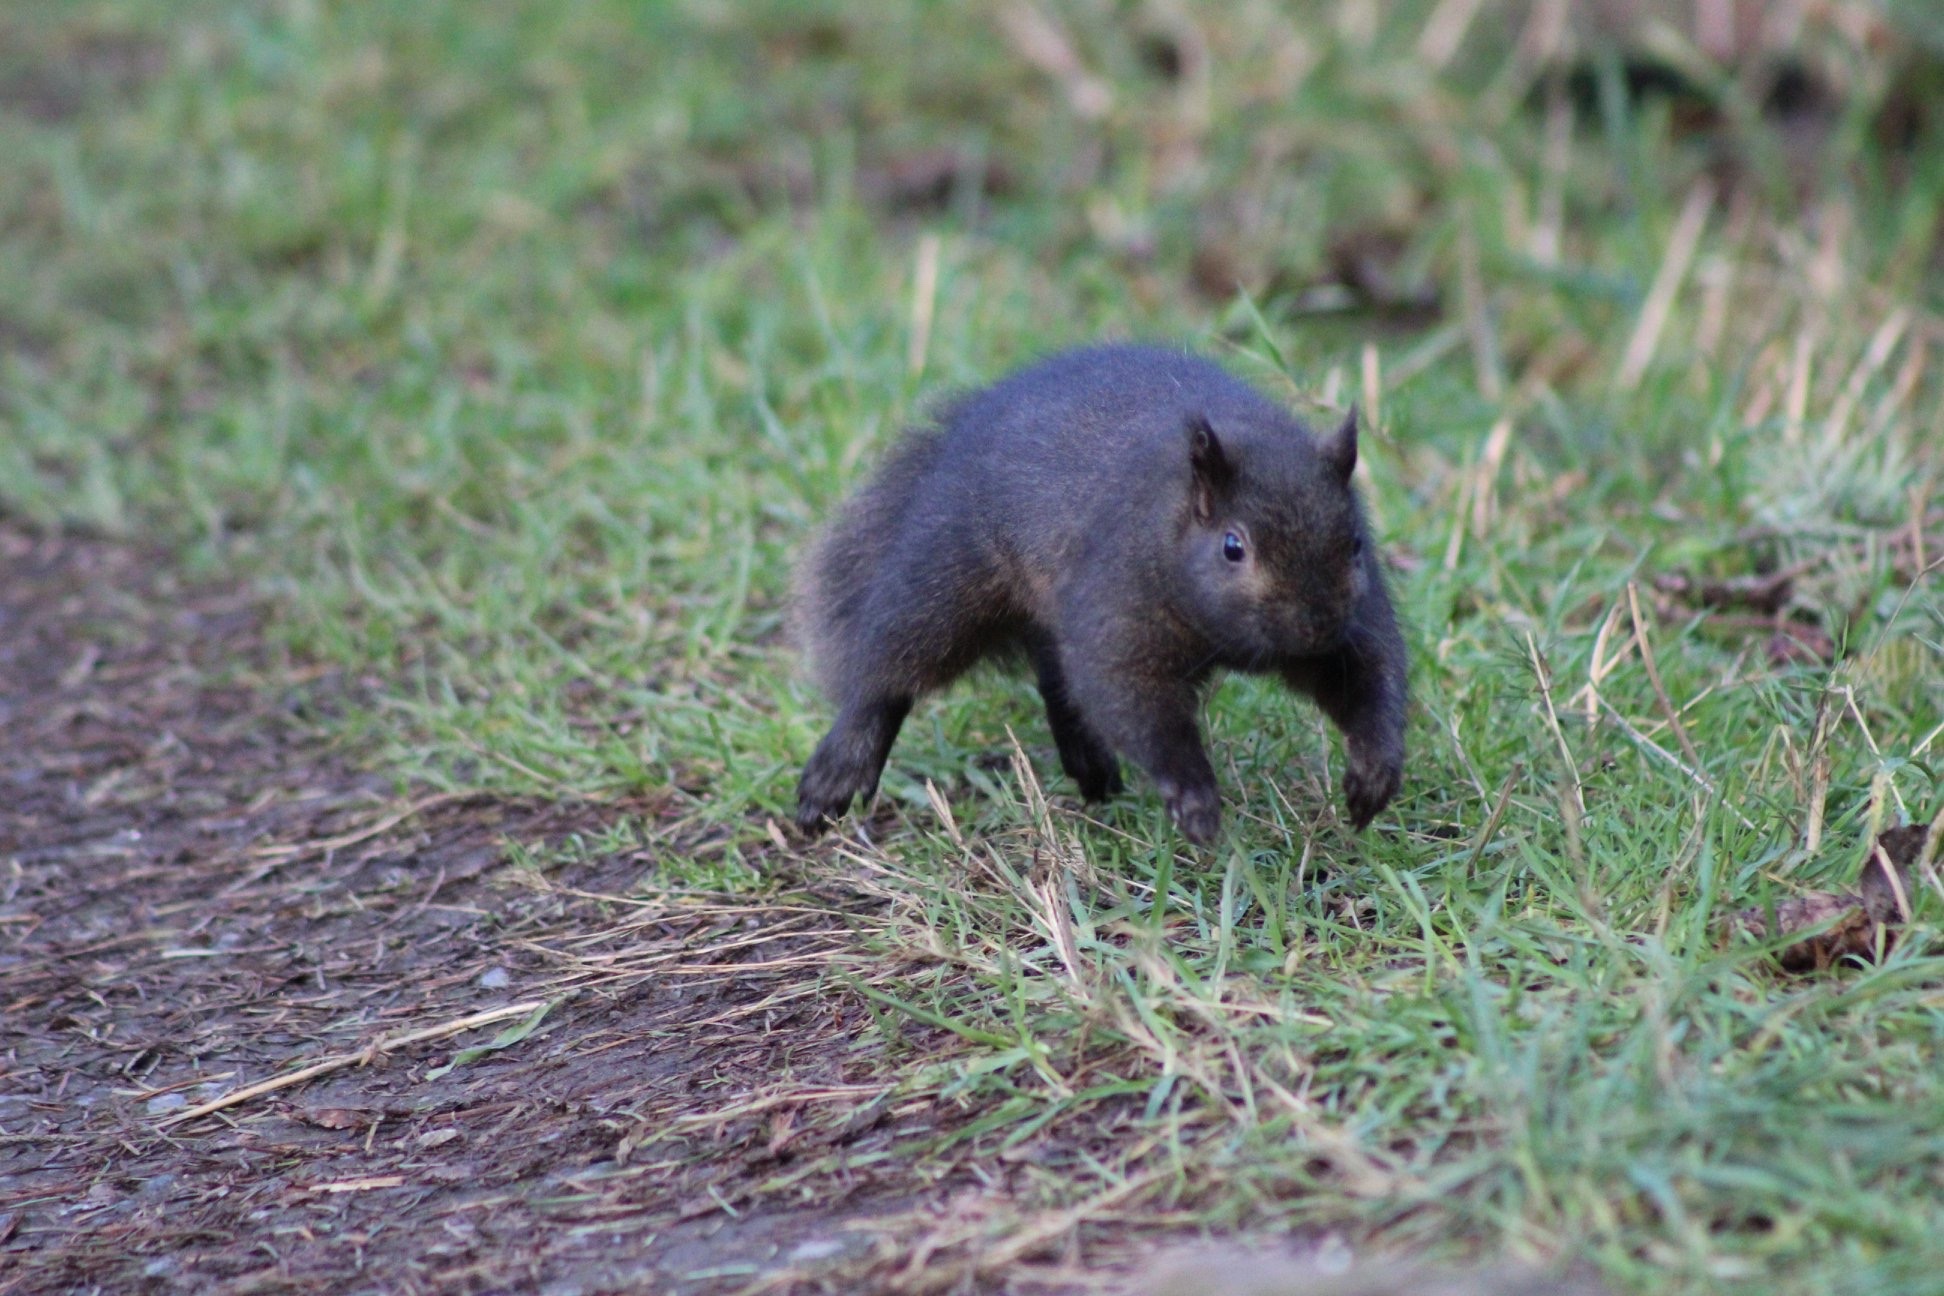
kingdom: Animalia
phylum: Chordata
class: Mammalia
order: Rodentia
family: Sciuridae
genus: Sciurus
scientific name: Sciurus carolinensis
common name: Eastern gray squirrel
